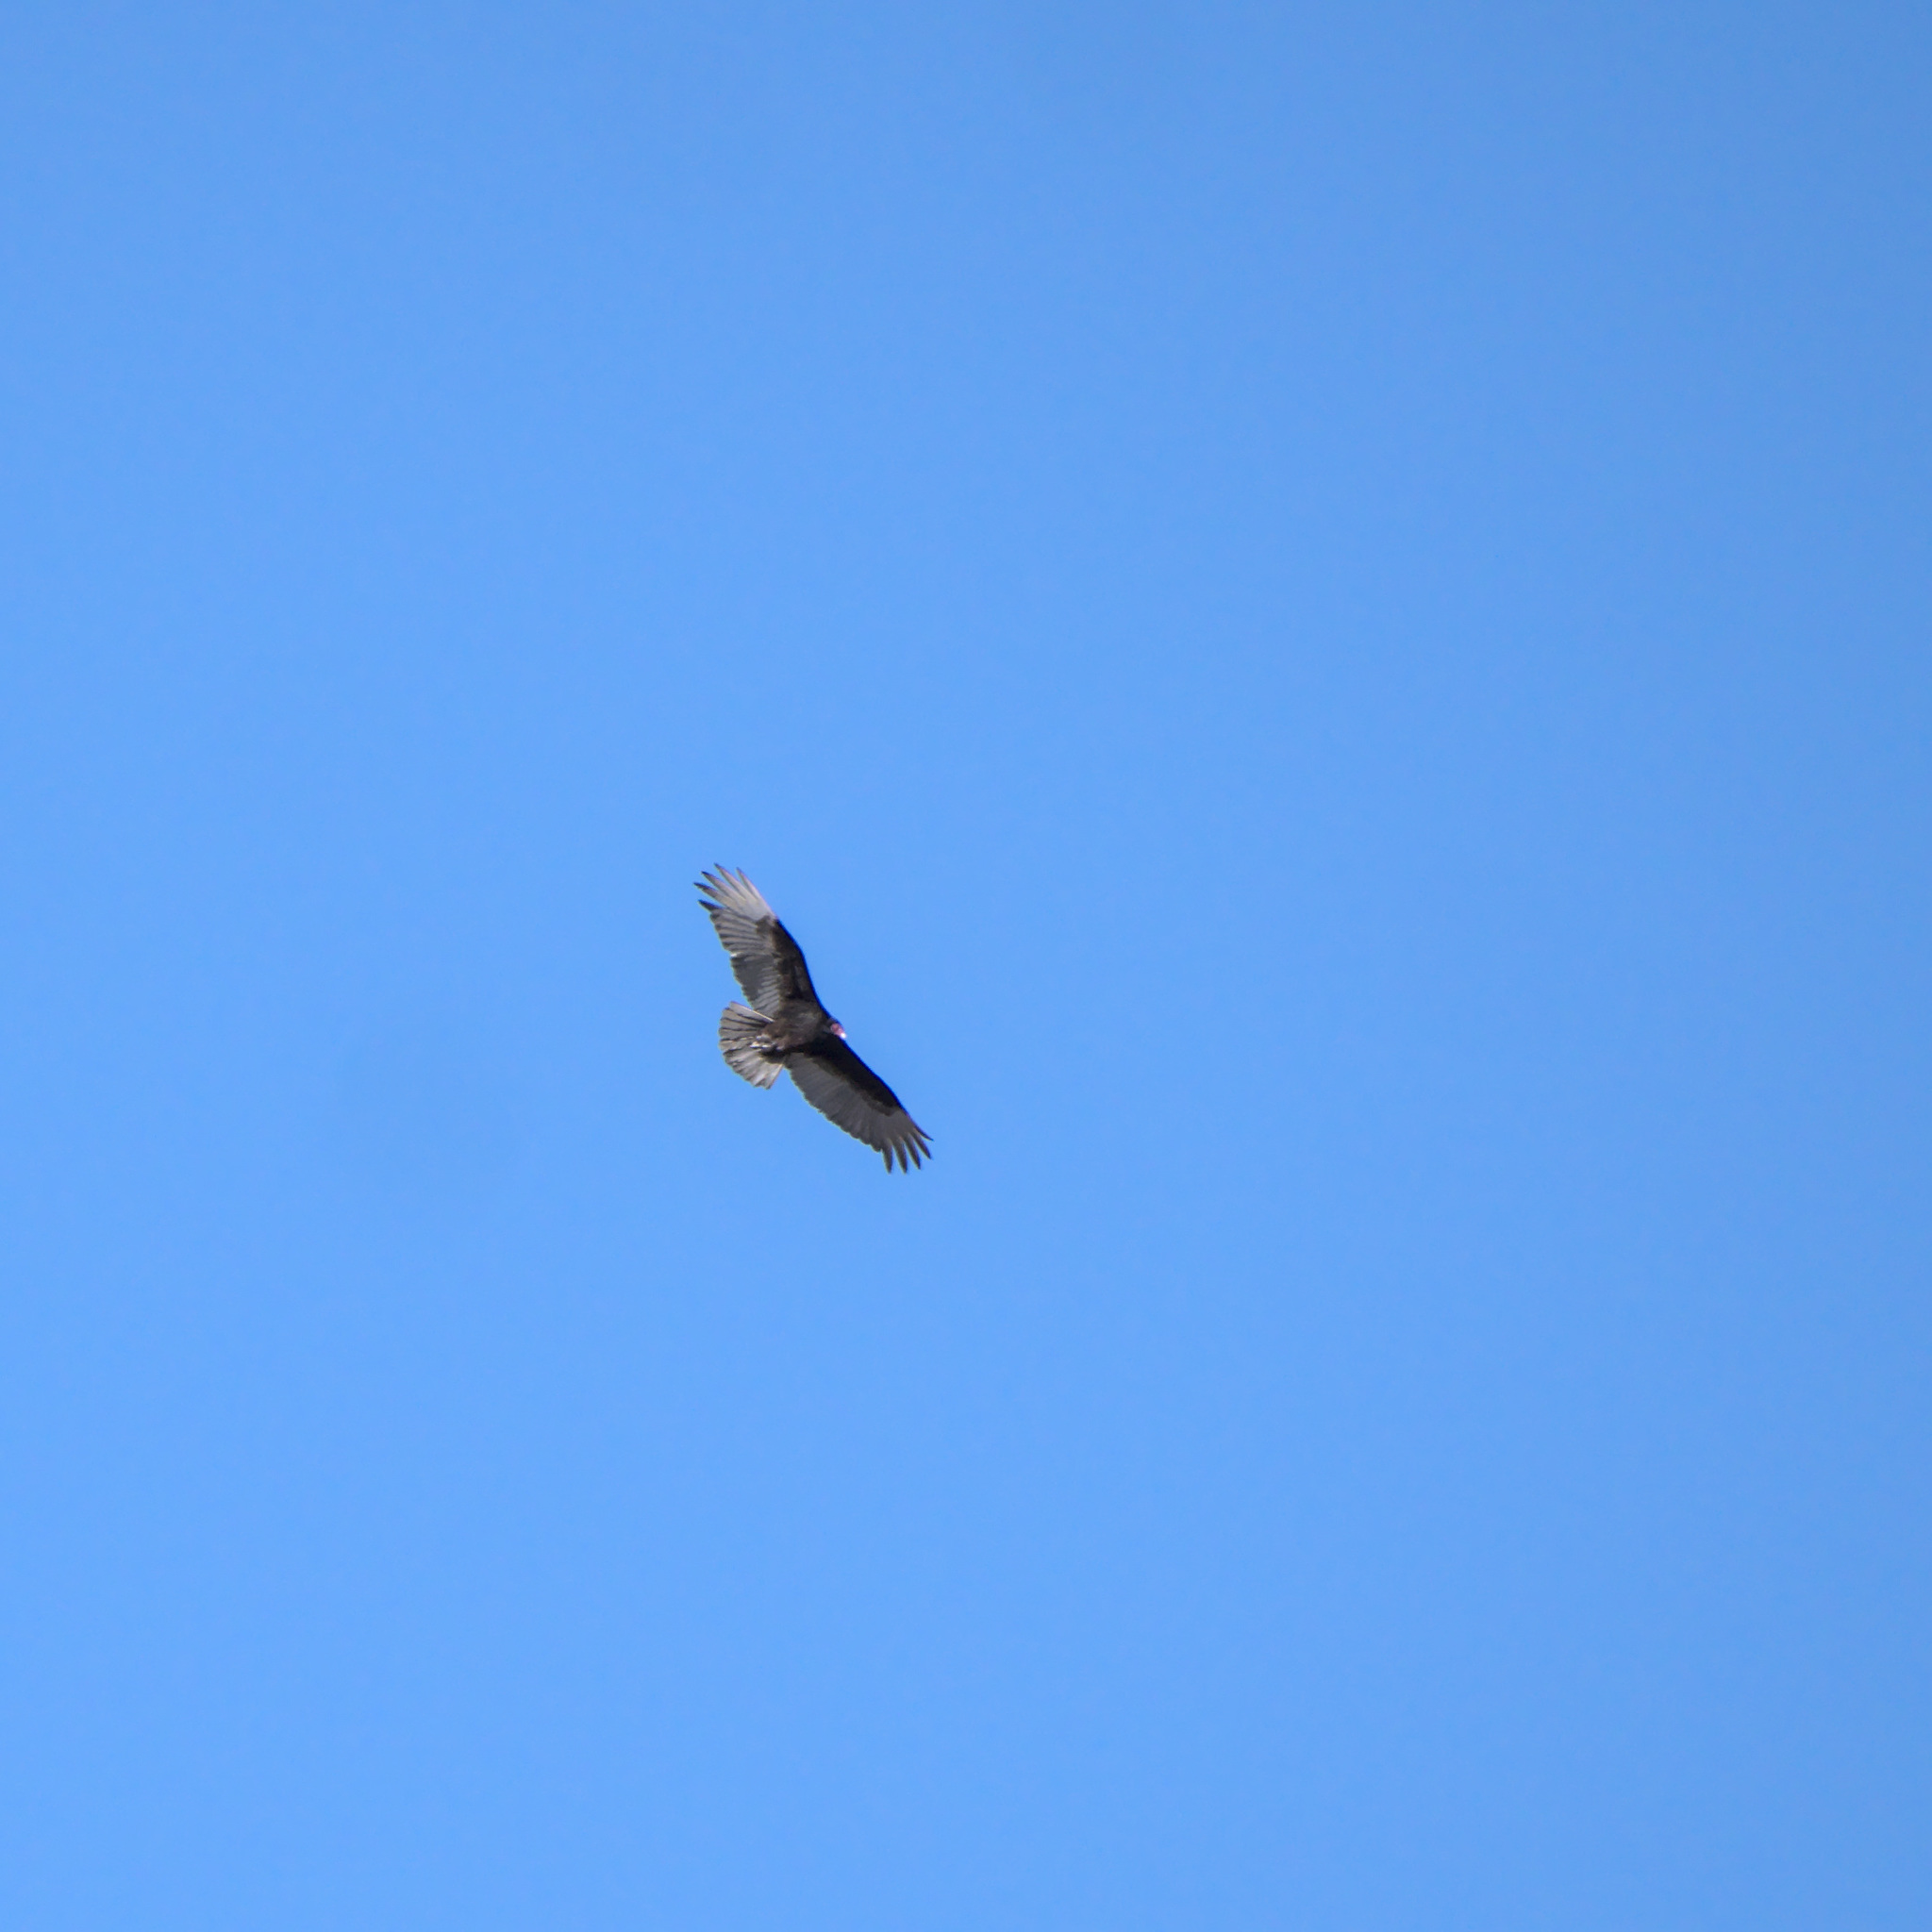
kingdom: Animalia
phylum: Chordata
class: Aves
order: Accipitriformes
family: Cathartidae
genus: Cathartes
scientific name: Cathartes aura
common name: Turkey vulture
